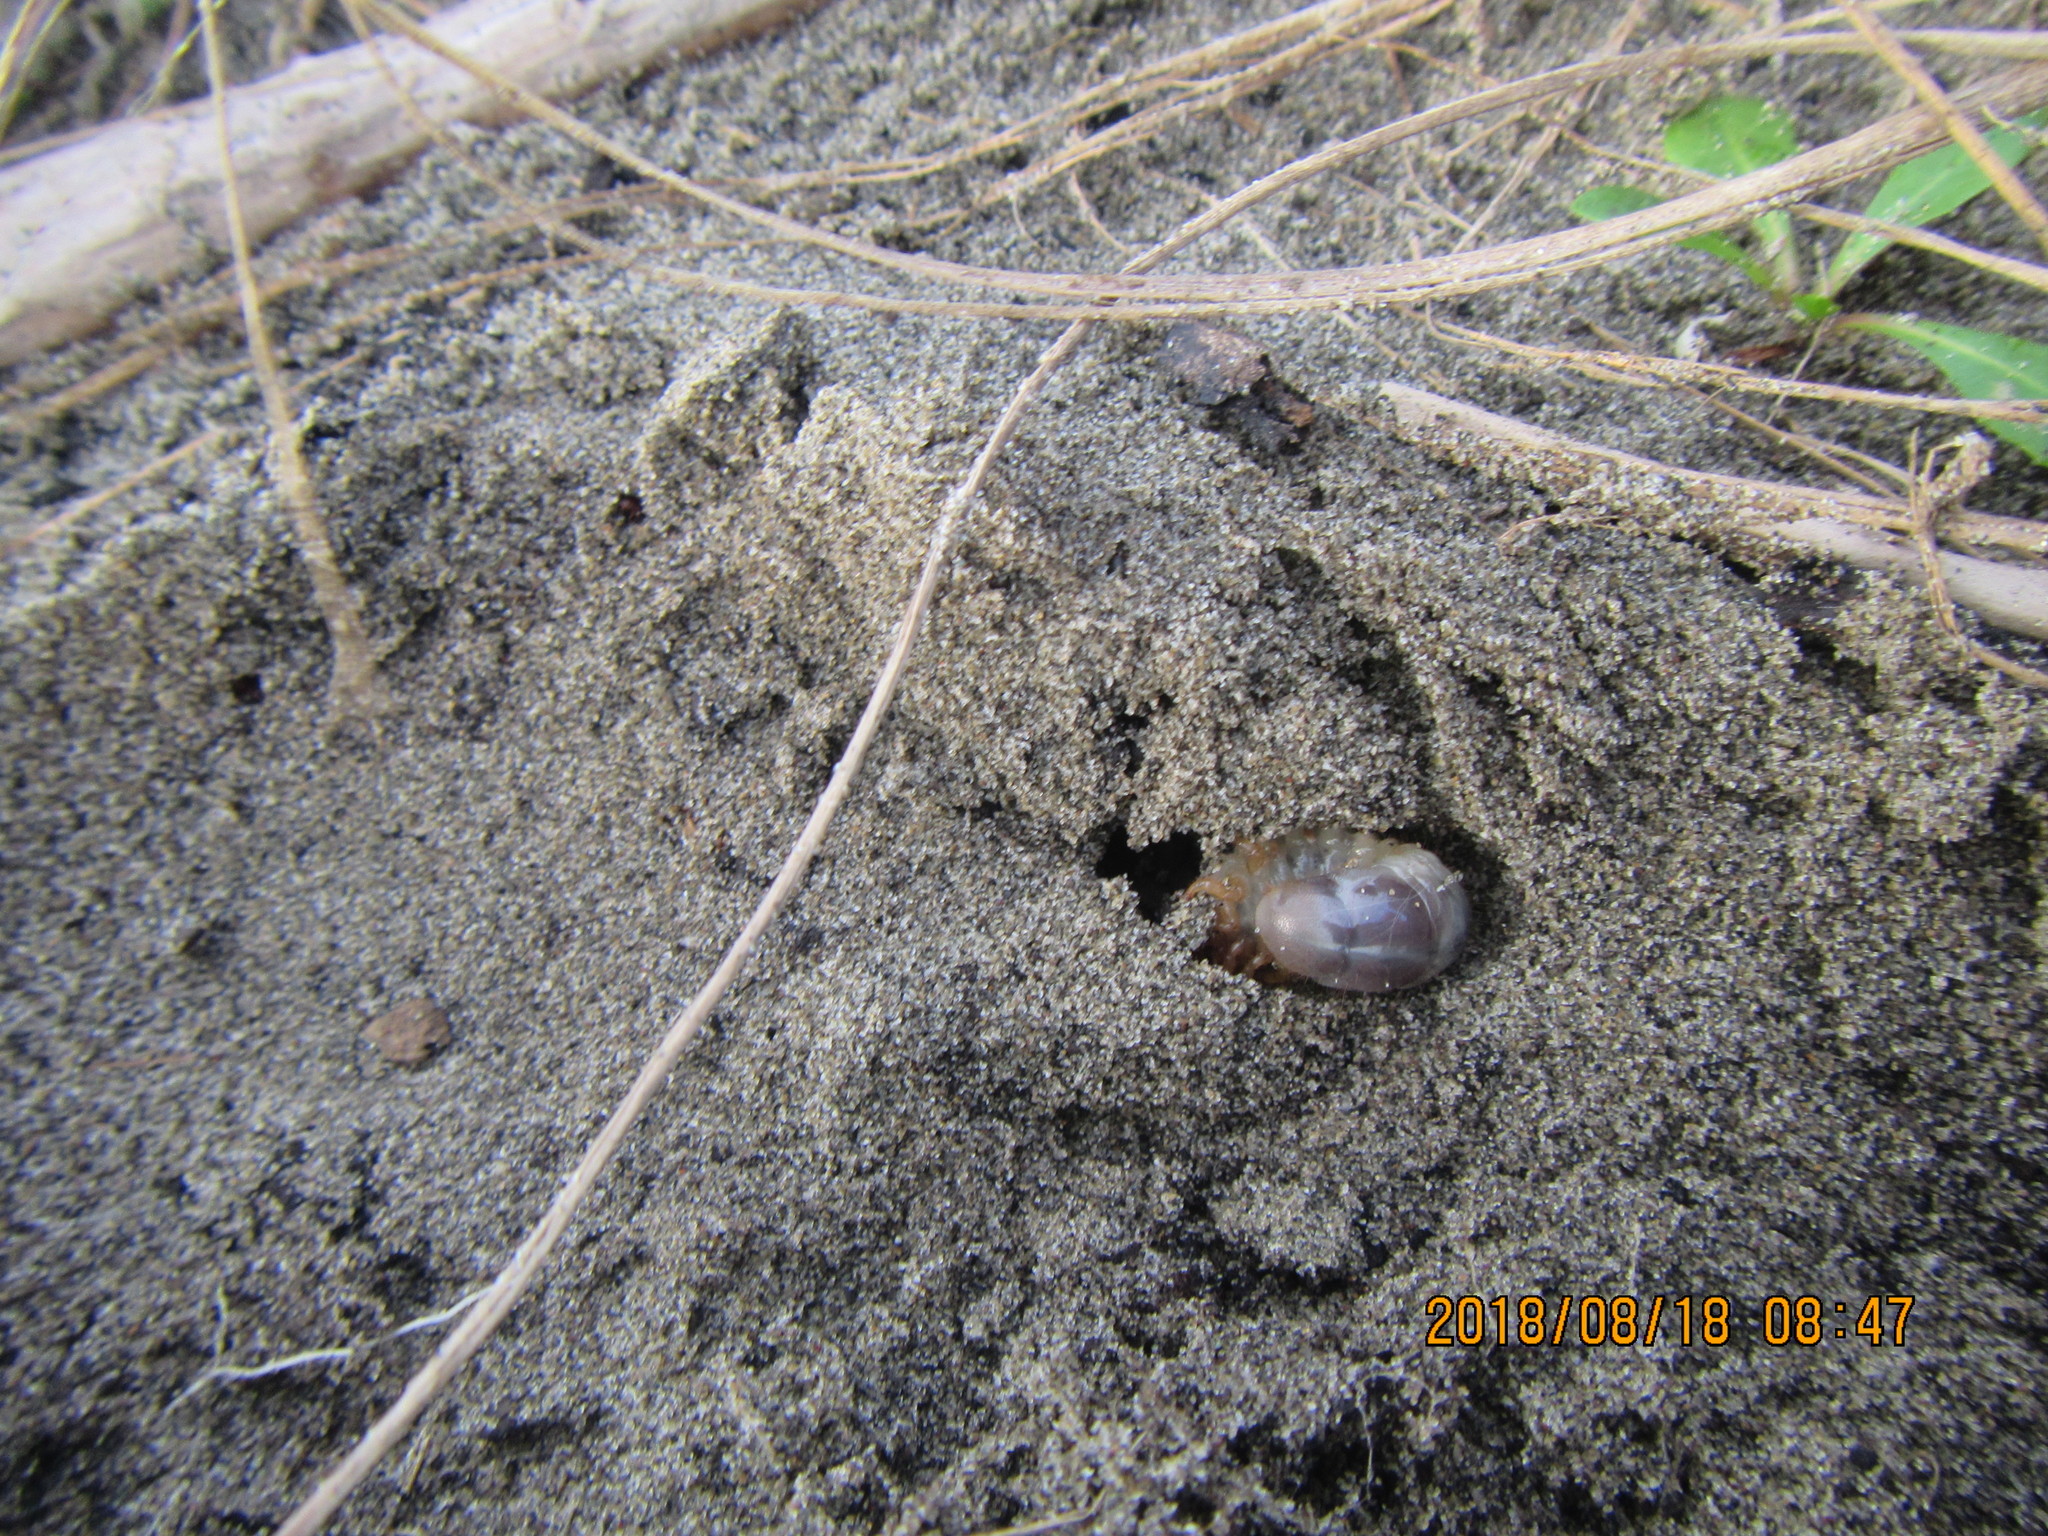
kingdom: Animalia
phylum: Arthropoda
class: Insecta
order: Coleoptera
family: Scarabaeidae
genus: Pericoptus
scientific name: Pericoptus truncatus
